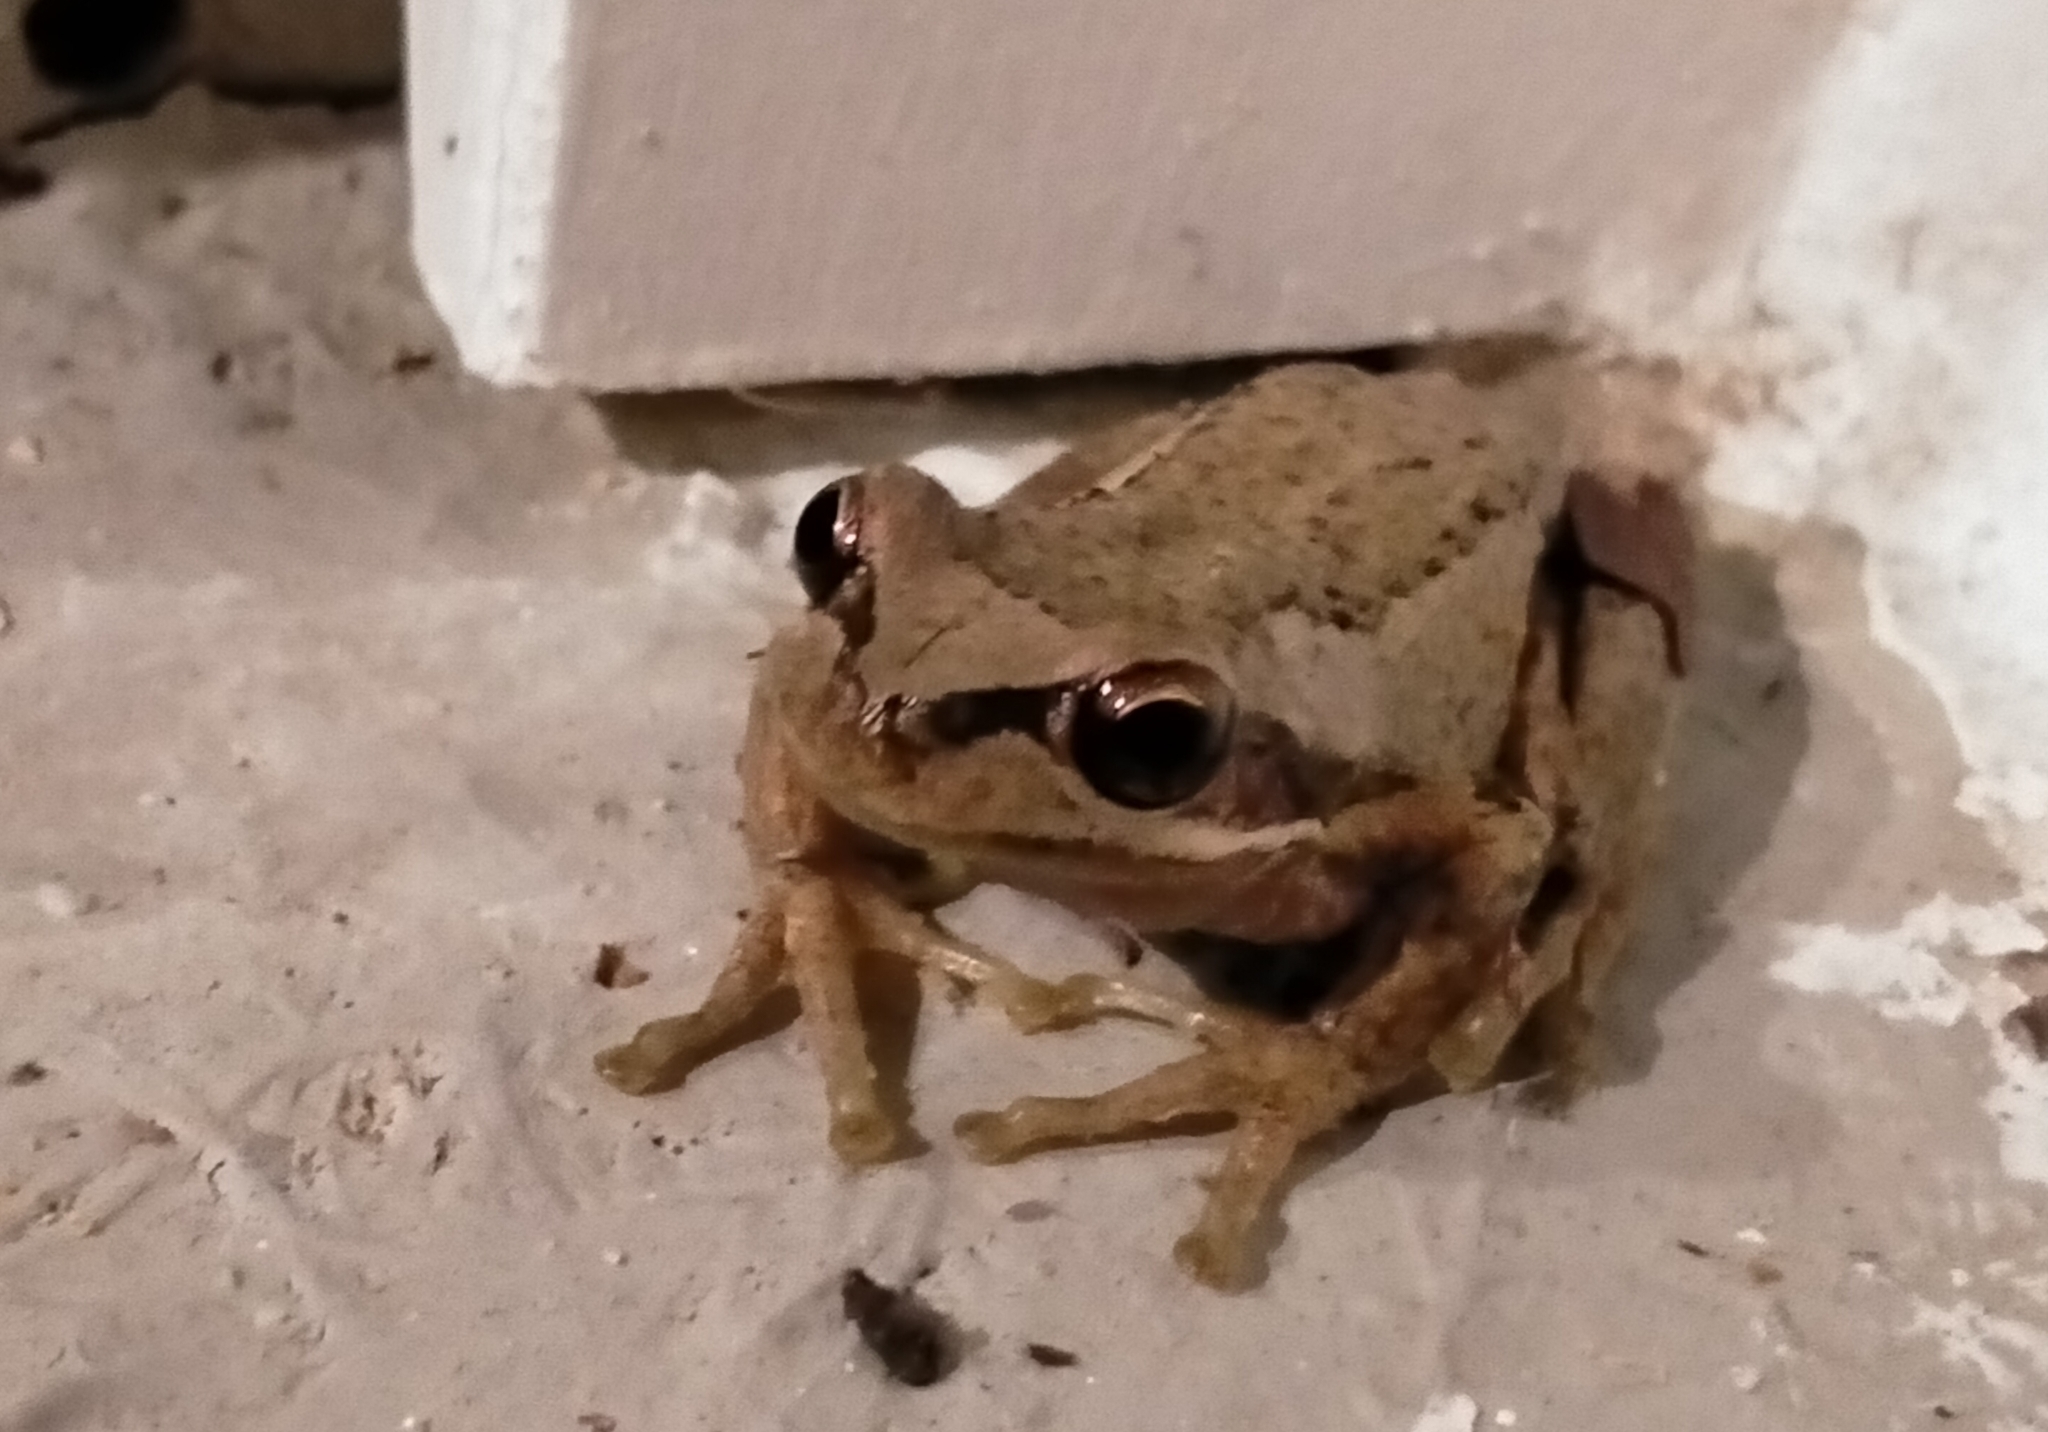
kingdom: Animalia
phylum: Chordata
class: Amphibia
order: Anura
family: Pelodryadidae
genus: Litoria
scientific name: Litoria ewingii
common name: Southern brown tree frog
